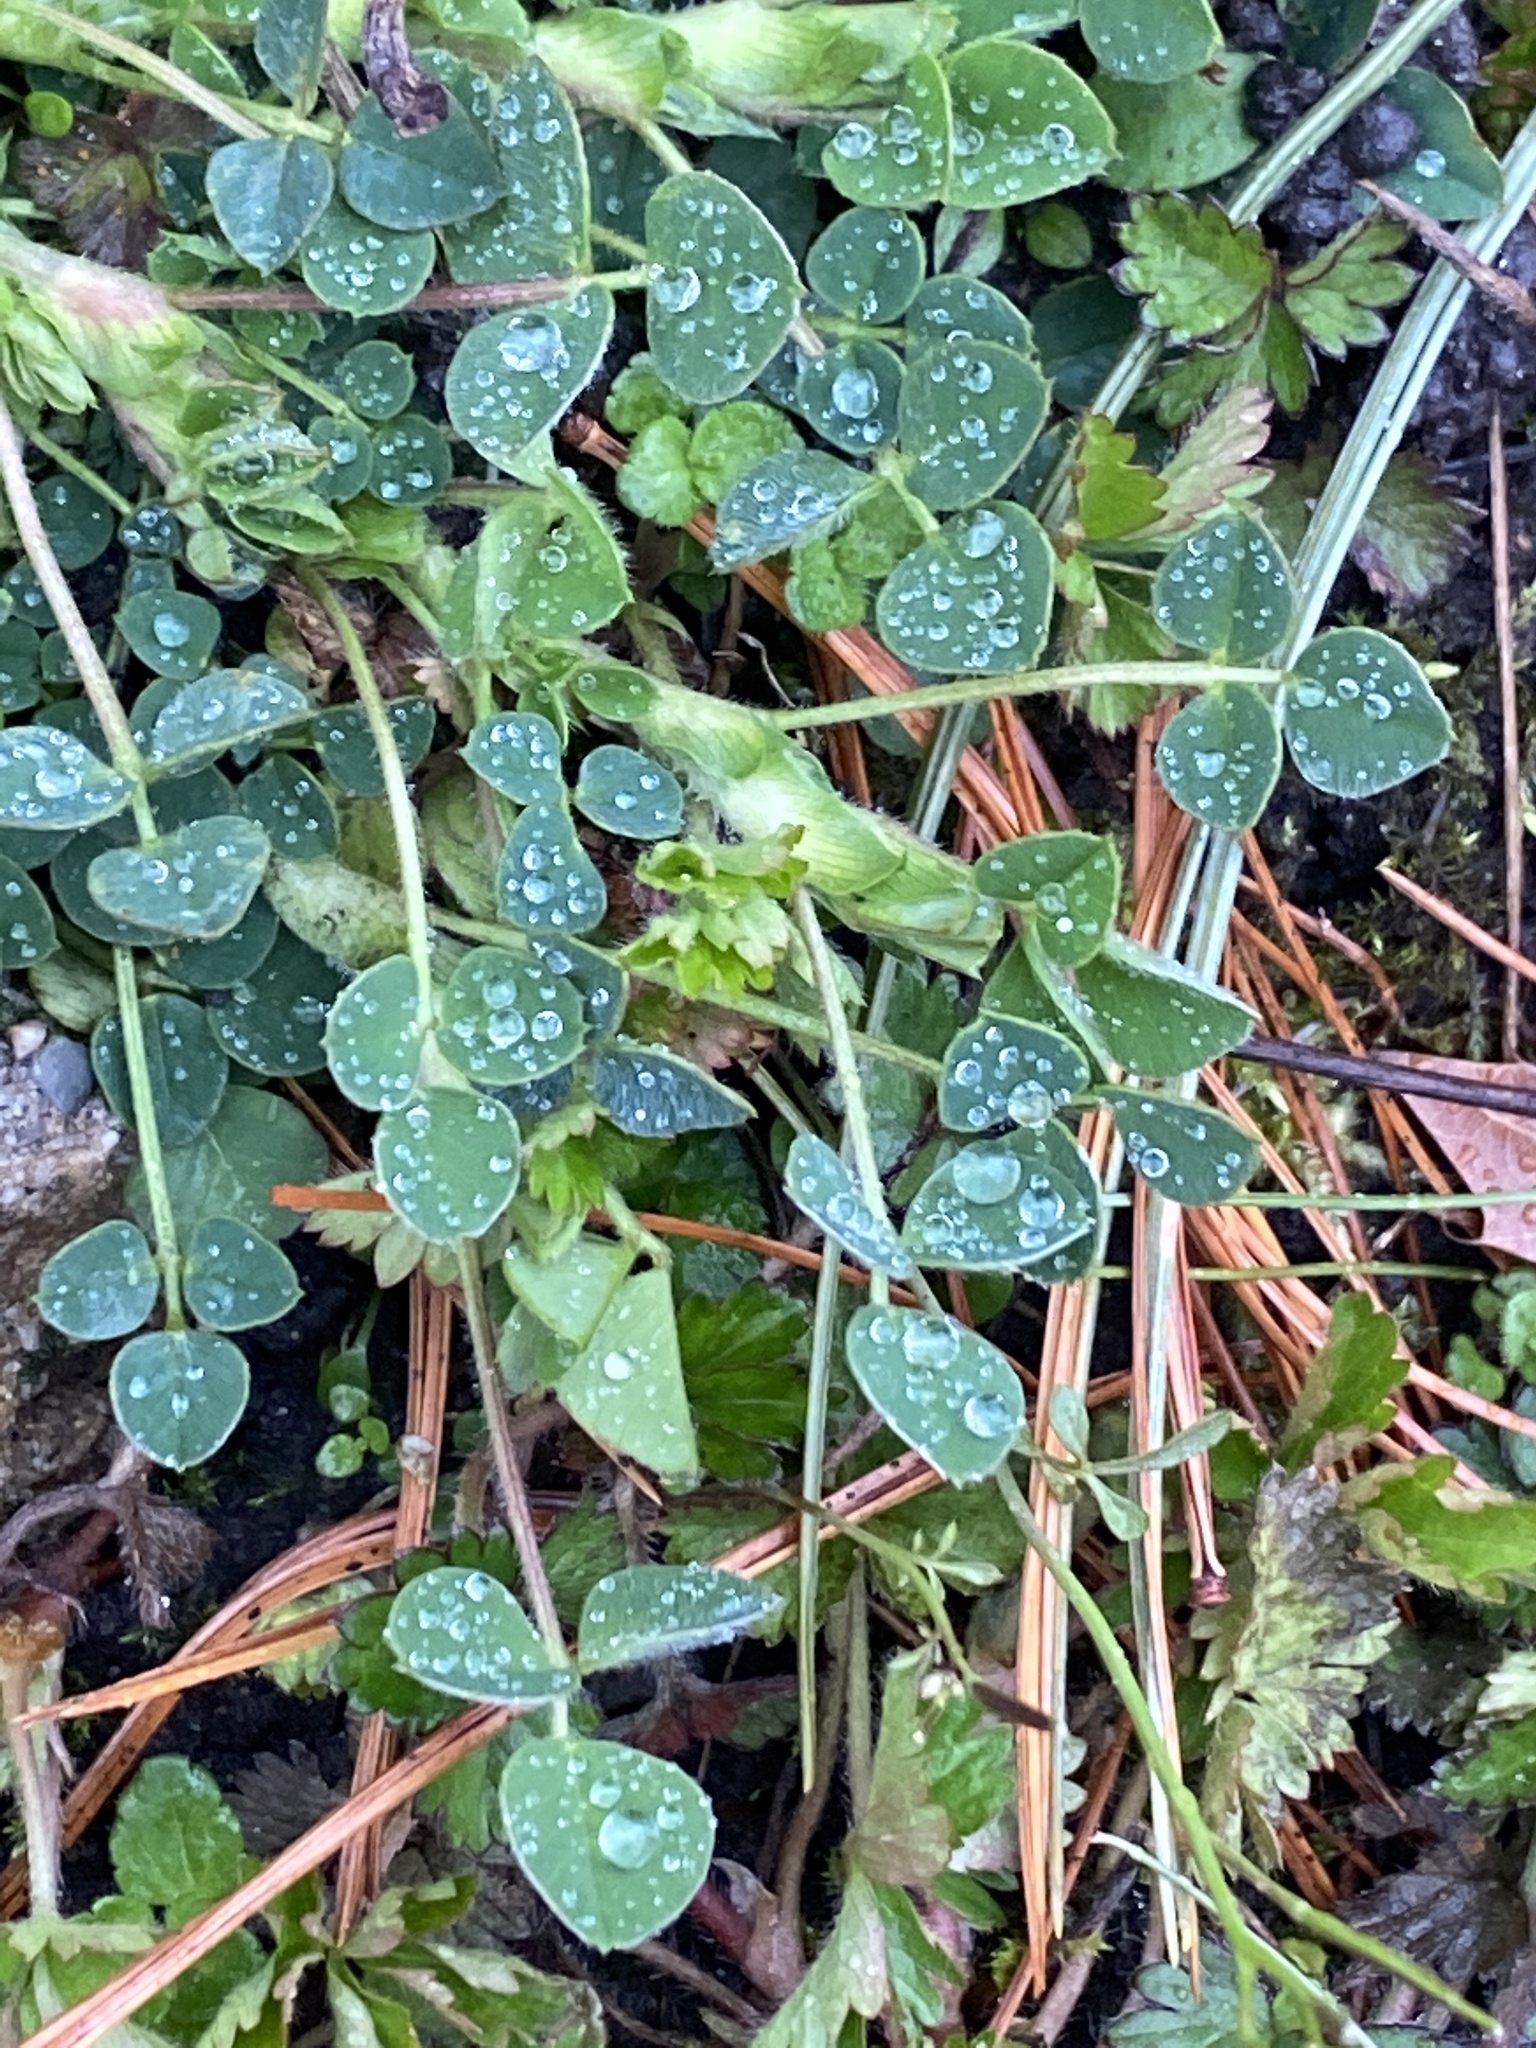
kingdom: Plantae
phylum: Tracheophyta
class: Magnoliopsida
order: Fabales
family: Fabaceae
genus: Medicago
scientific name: Medicago lupulina
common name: Black medick
